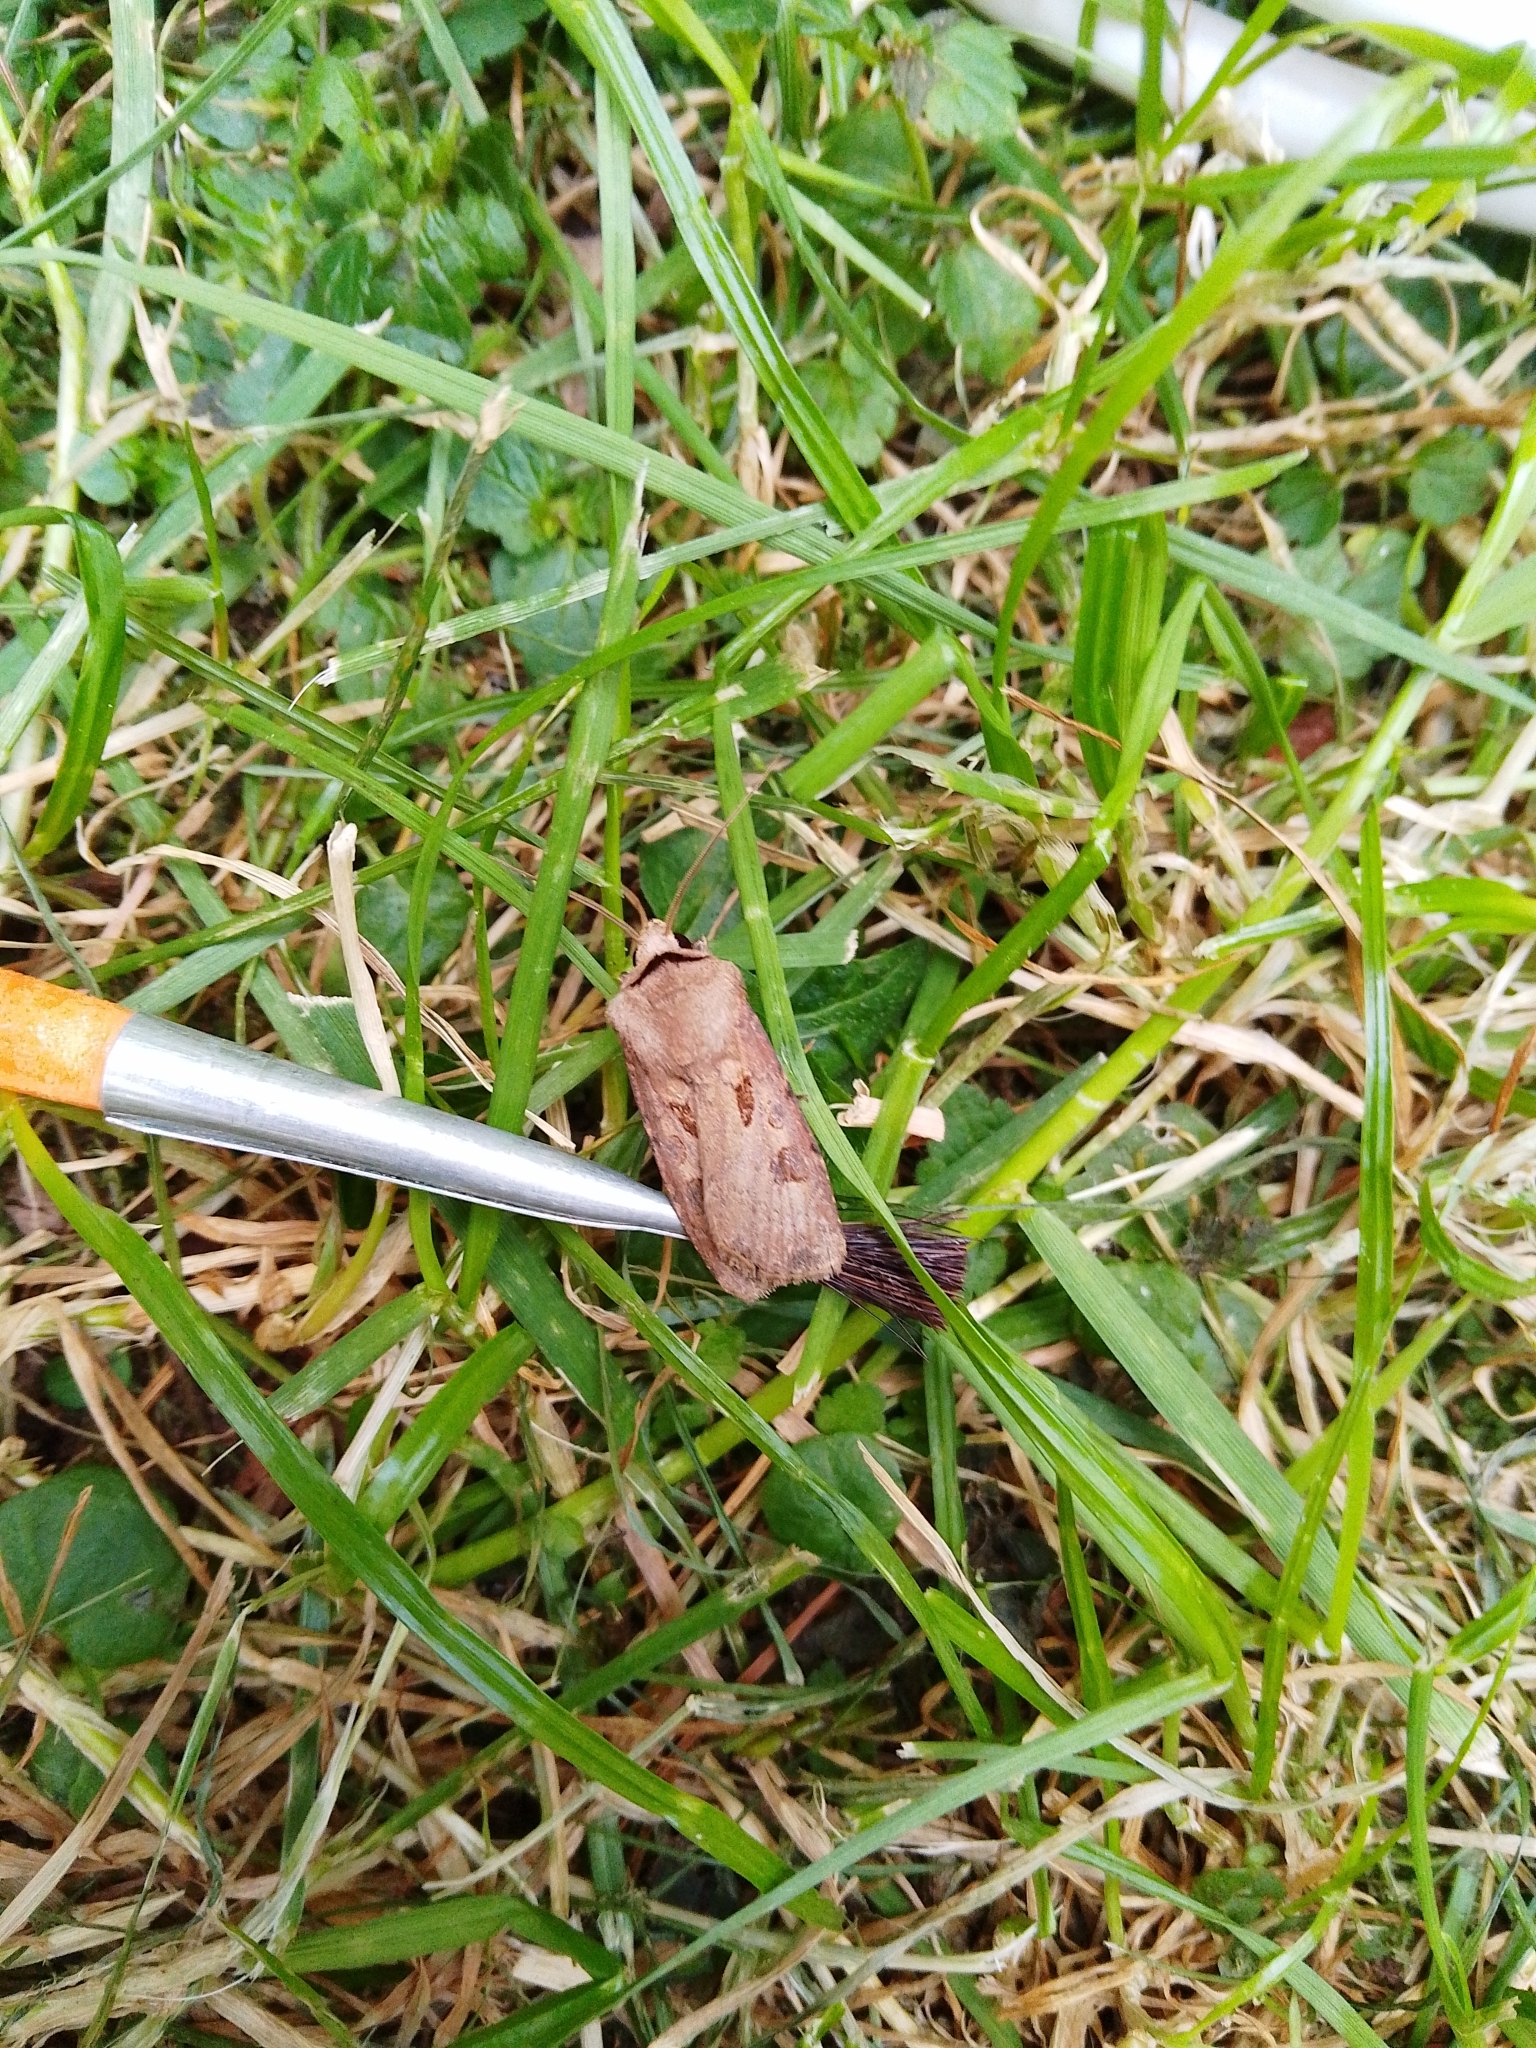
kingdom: Animalia
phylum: Arthropoda
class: Insecta
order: Lepidoptera
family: Noctuidae
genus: Agrotis
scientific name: Agrotis exclamationis
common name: Heart and dart
